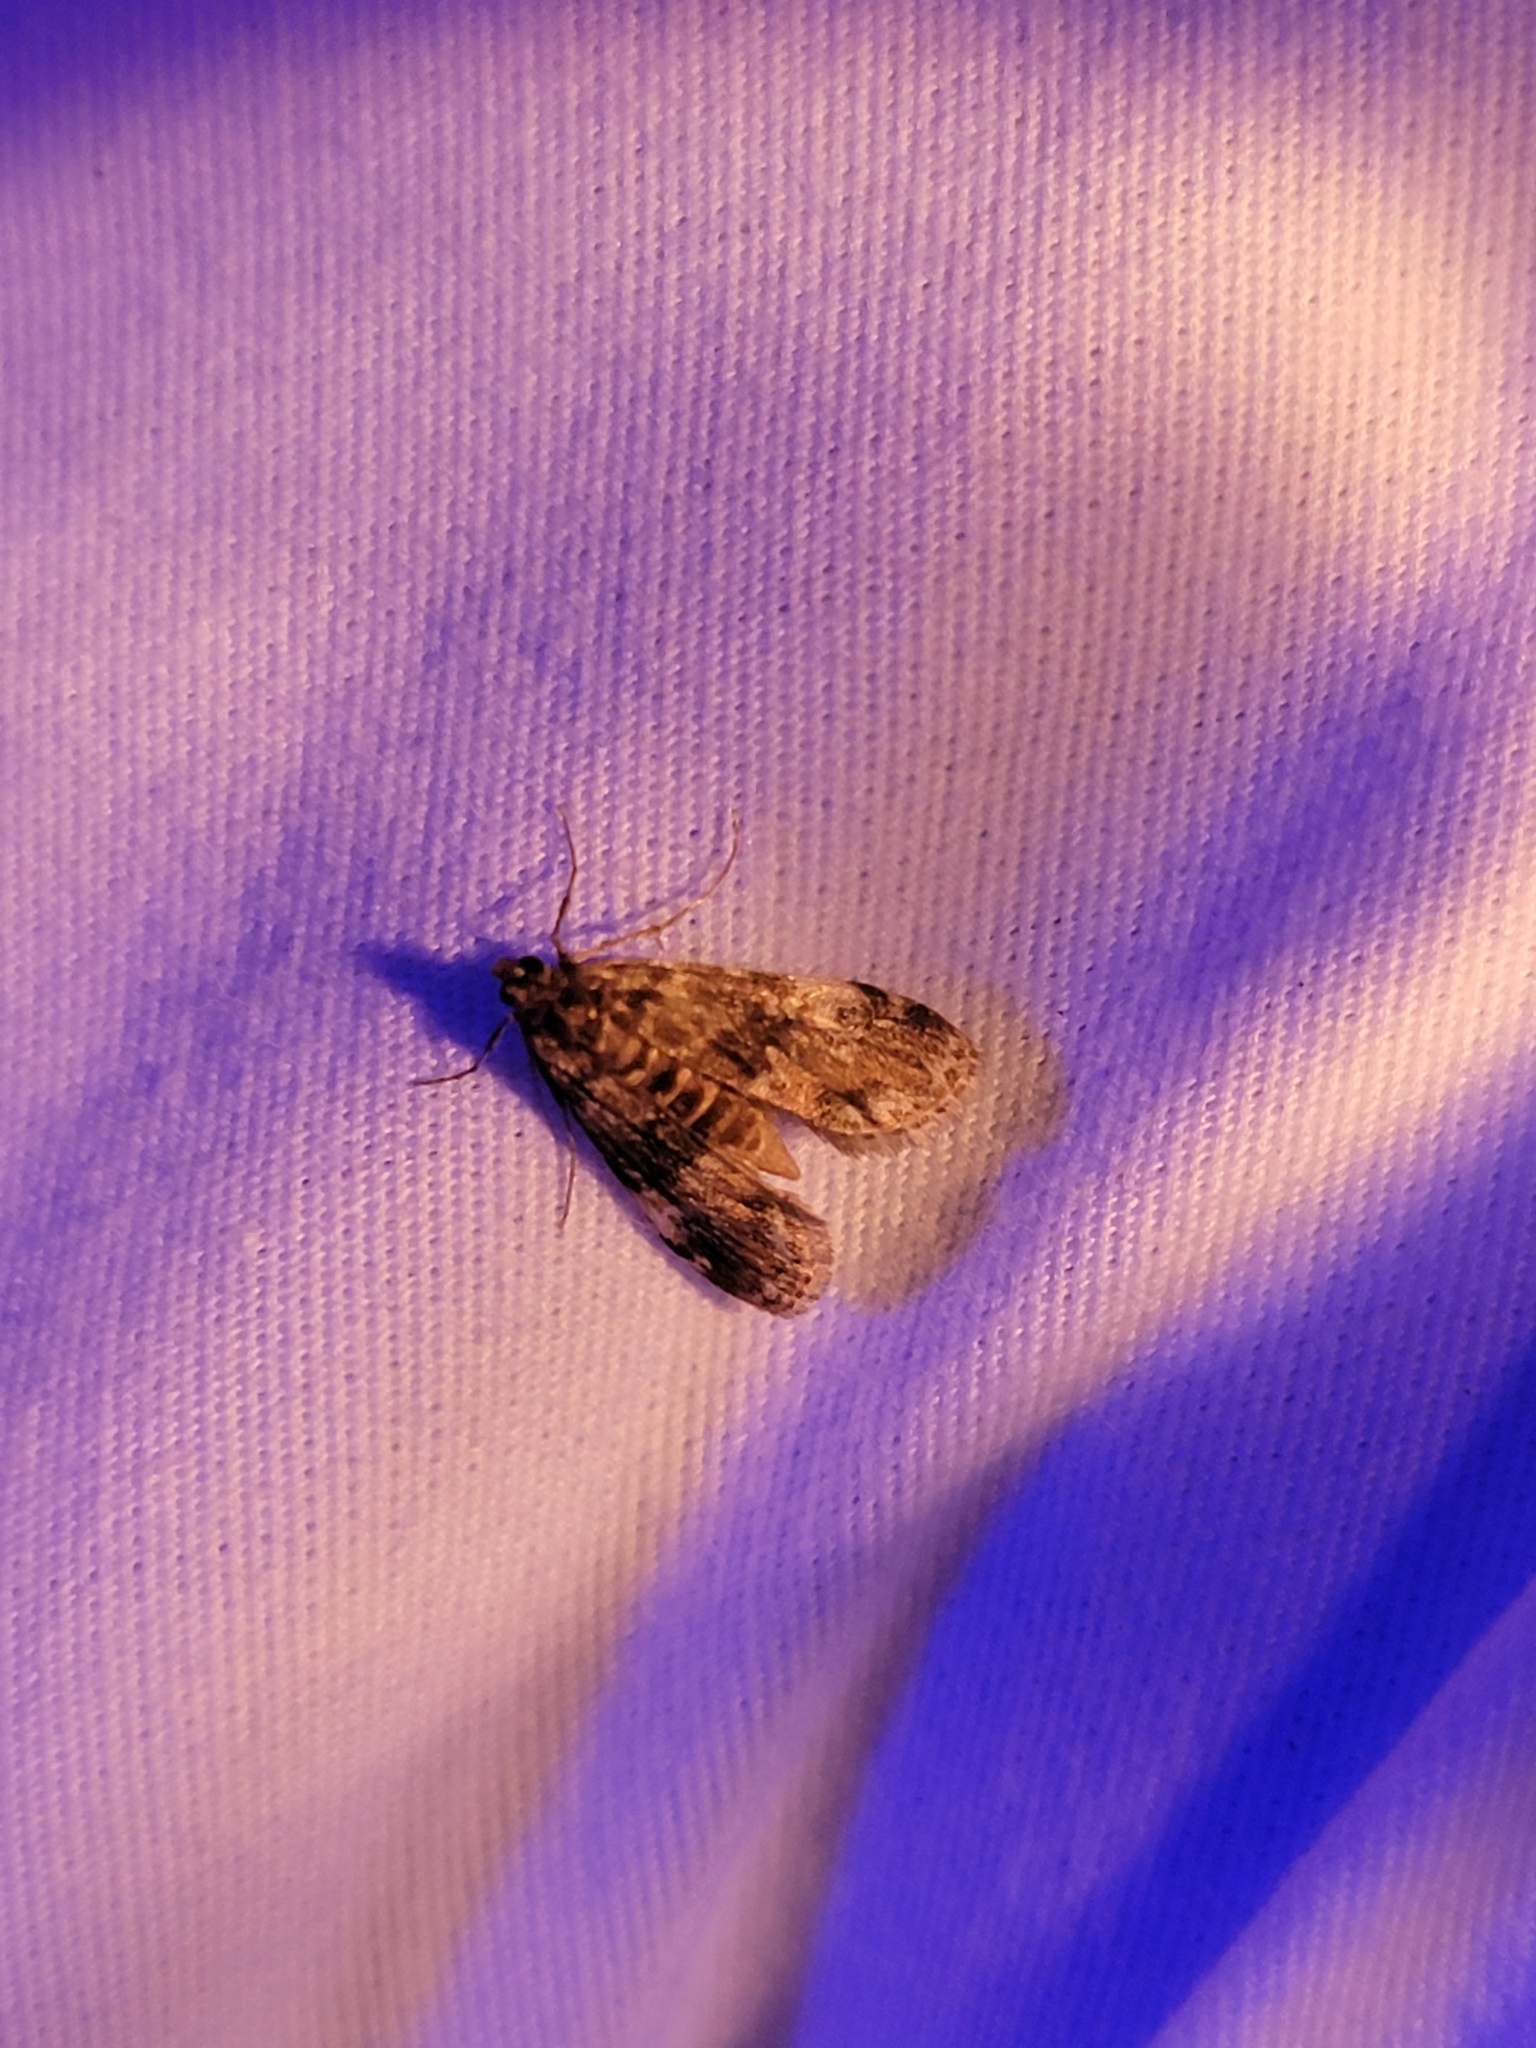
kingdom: Animalia
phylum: Arthropoda
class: Insecta
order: Lepidoptera
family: Crambidae
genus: Elophila
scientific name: Elophila obliteralis
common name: Waterlily leafcutter moth
